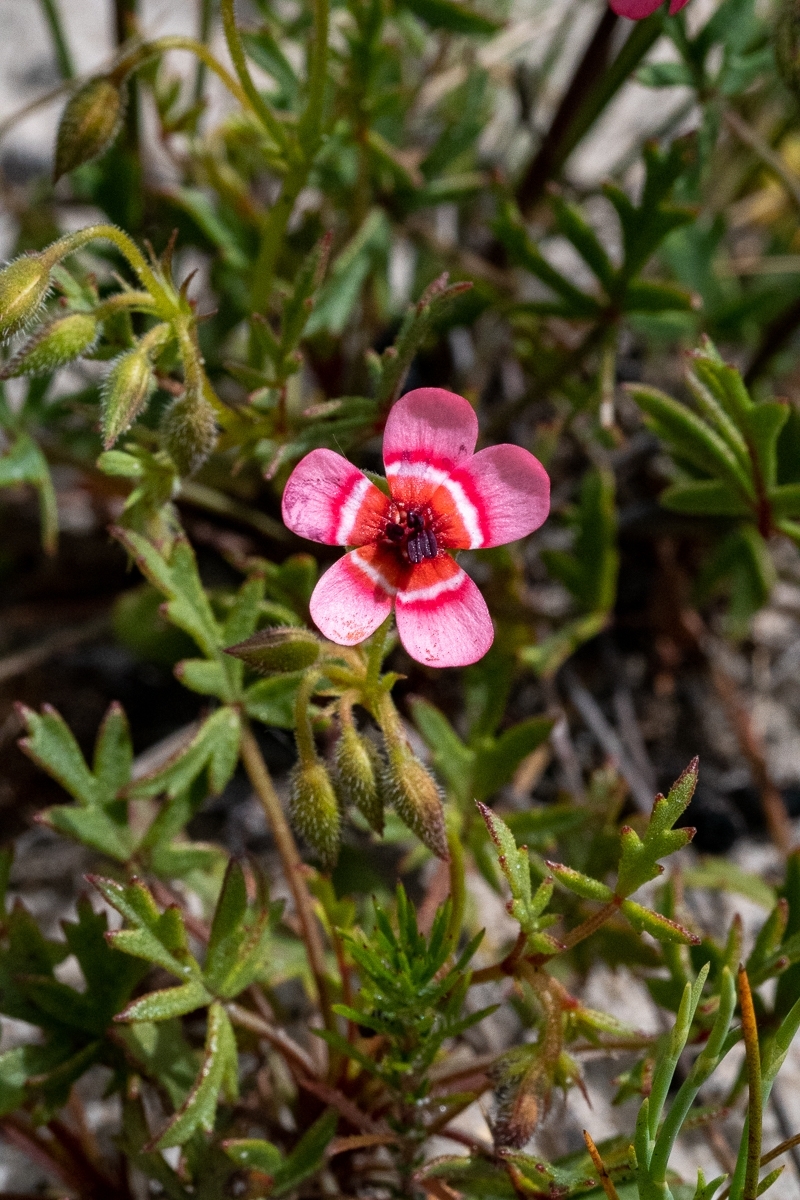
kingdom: Plantae
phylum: Tracheophyta
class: Magnoliopsida
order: Geraniales
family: Geraniaceae
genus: Pelargonium
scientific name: Pelargonium incarnatum
